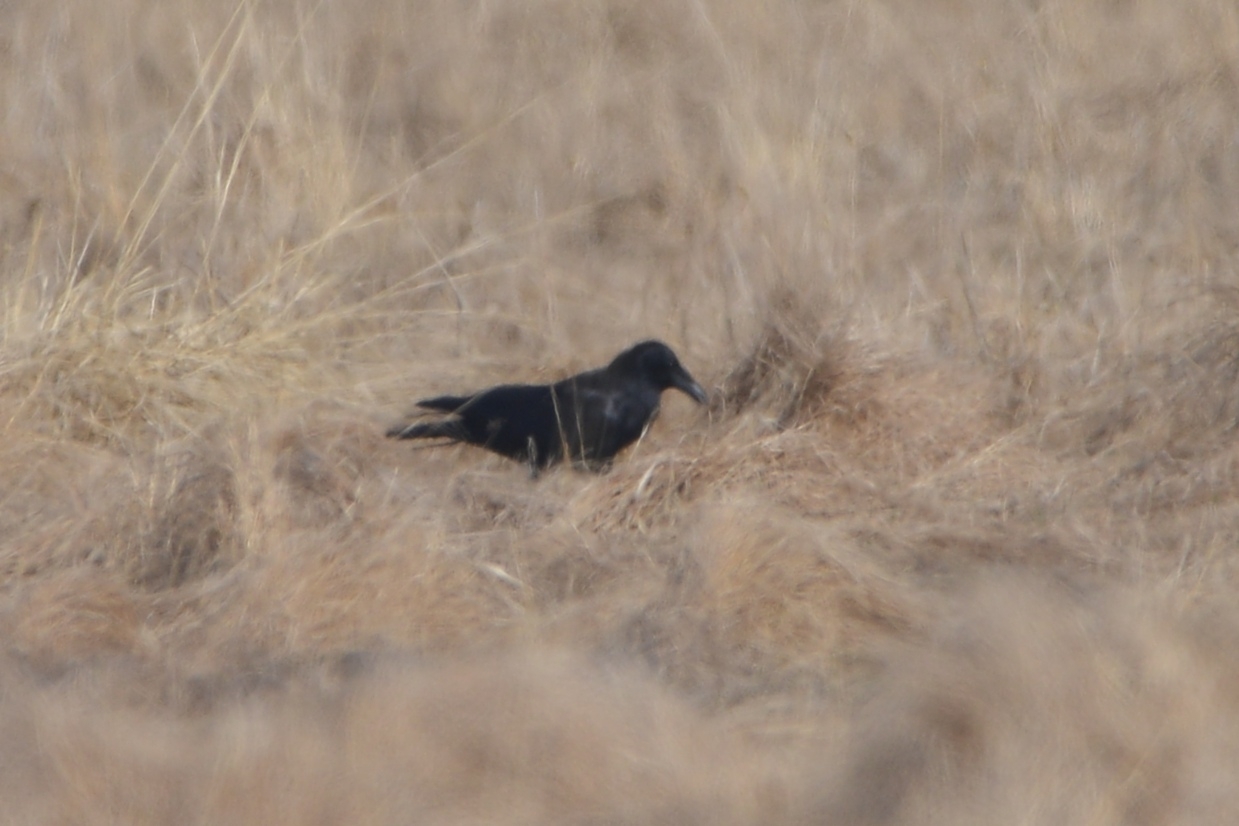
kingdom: Animalia
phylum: Chordata
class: Aves
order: Passeriformes
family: Corvidae
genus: Corvus
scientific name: Corvus corone
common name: Carrion crow
